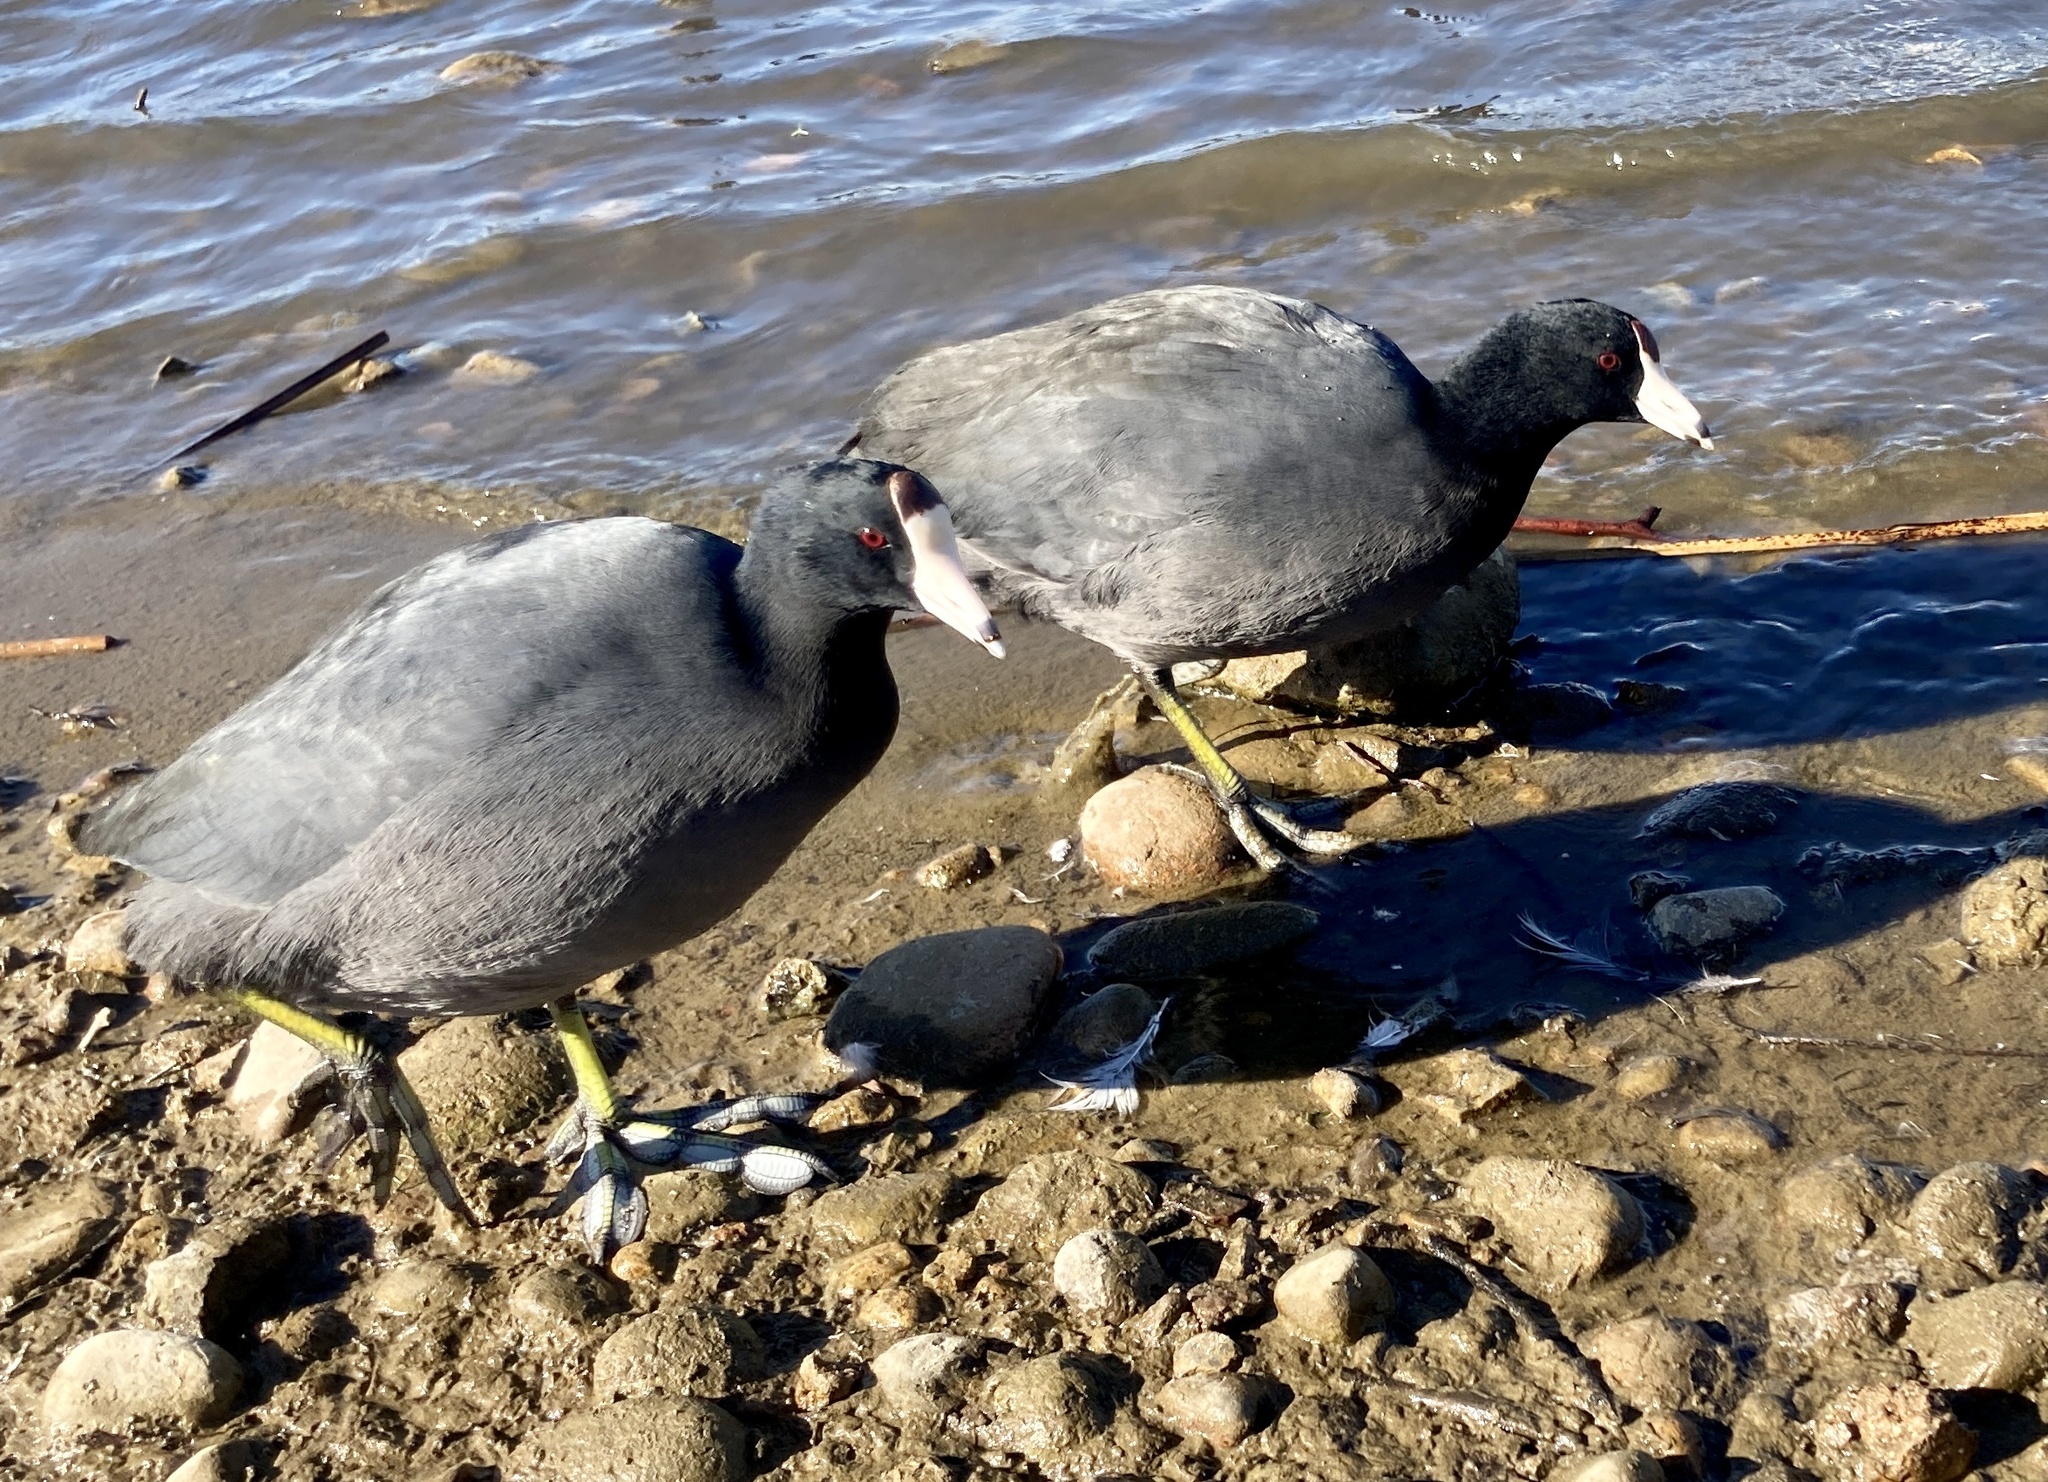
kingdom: Animalia
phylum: Chordata
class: Aves
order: Gruiformes
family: Rallidae
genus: Fulica
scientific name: Fulica americana
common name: American coot
